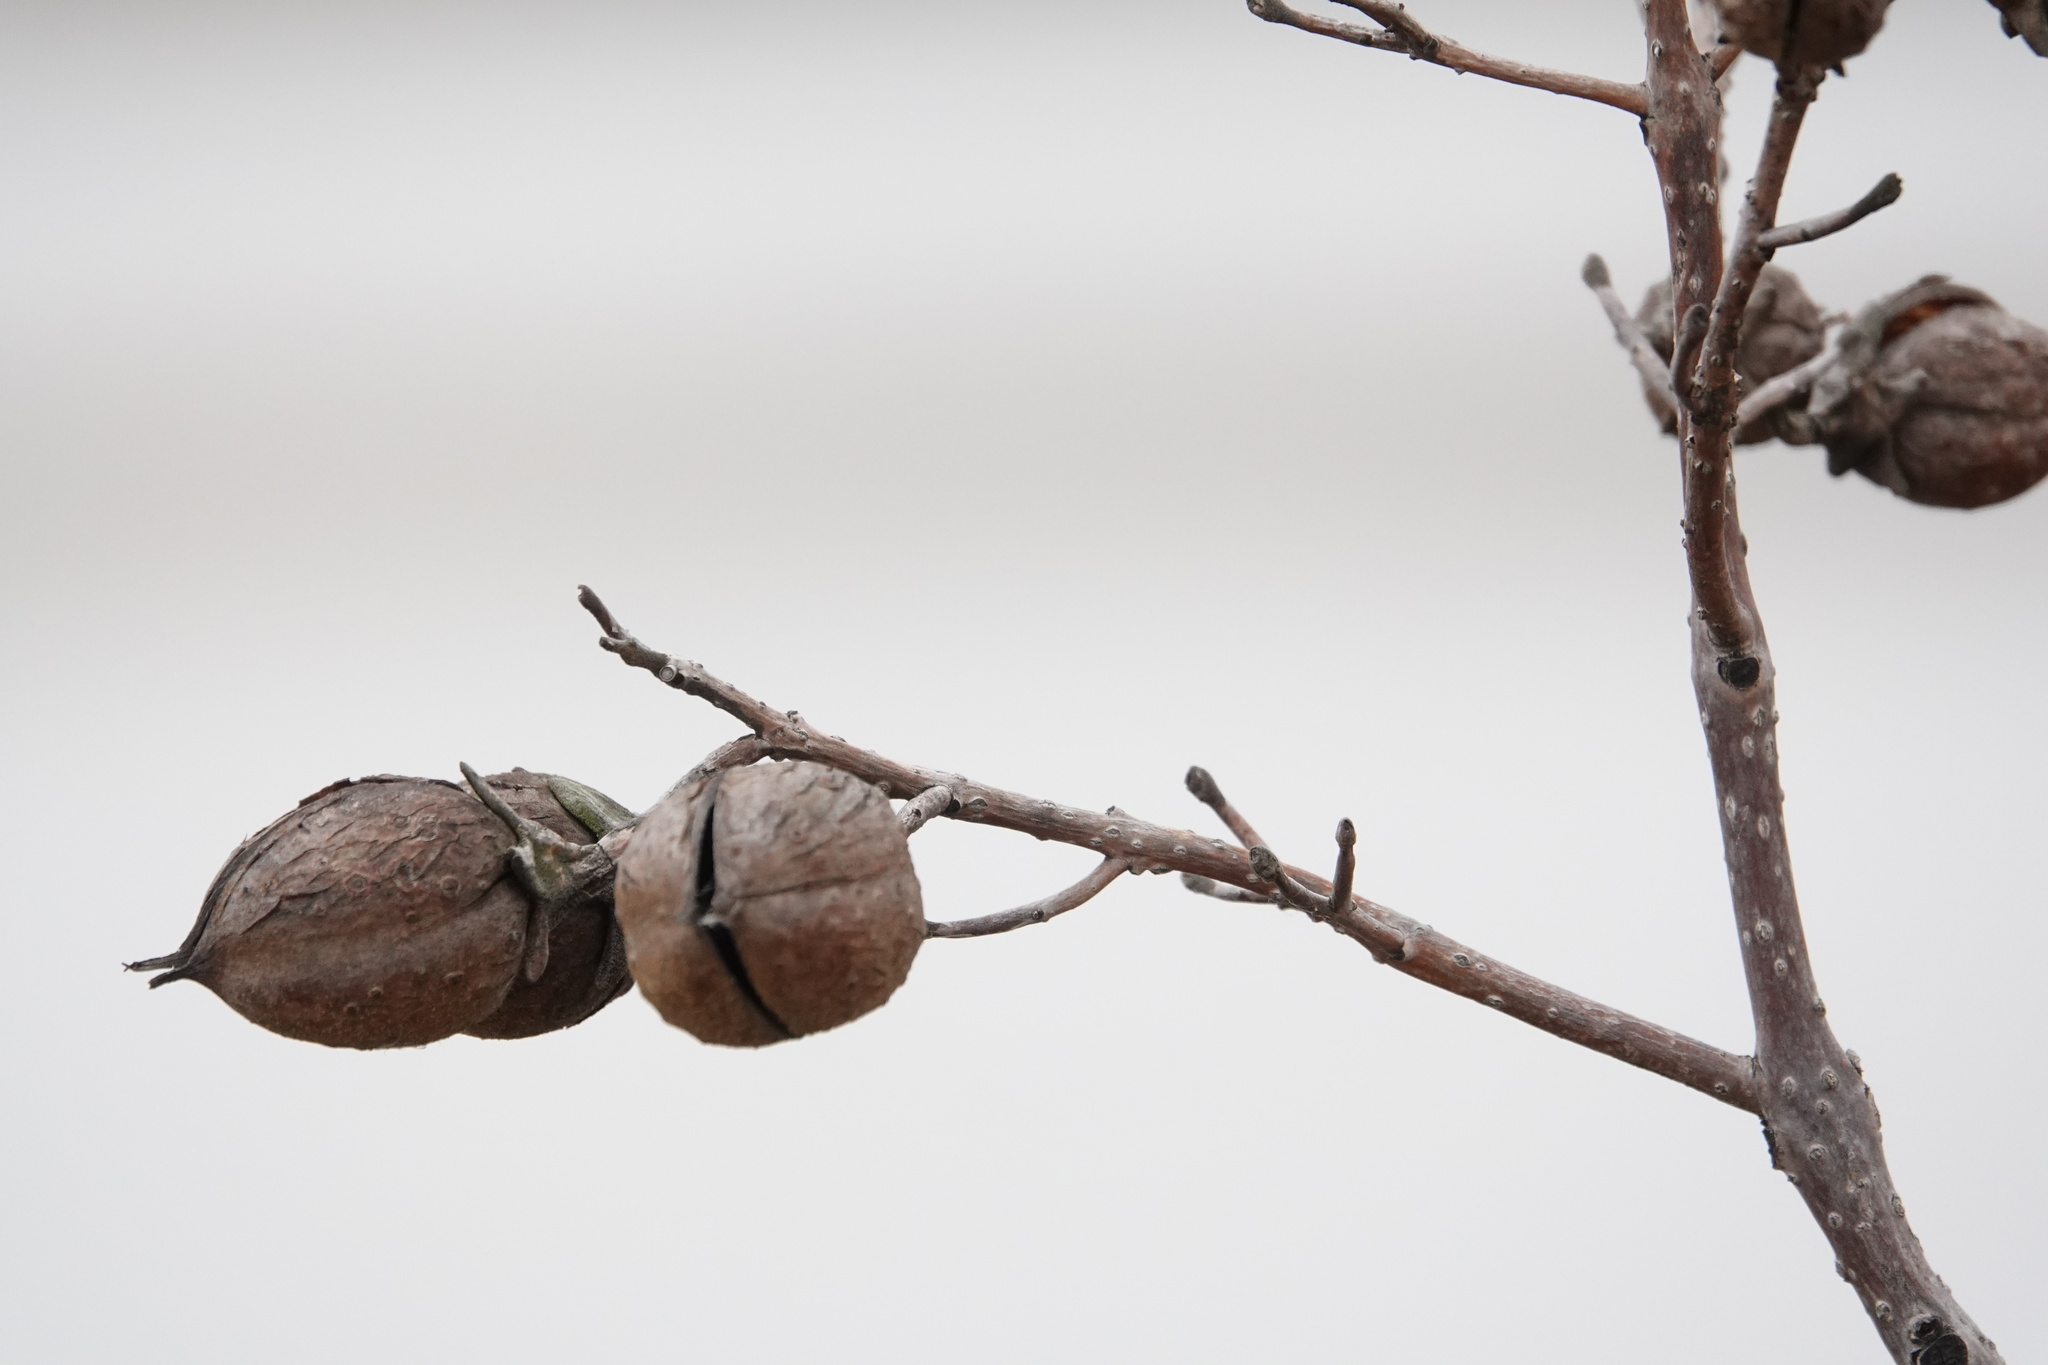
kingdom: Plantae
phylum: Tracheophyta
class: Magnoliopsida
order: Lamiales
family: Paulowniaceae
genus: Paulownia
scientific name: Paulownia tomentosa
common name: Foxglove-tree
